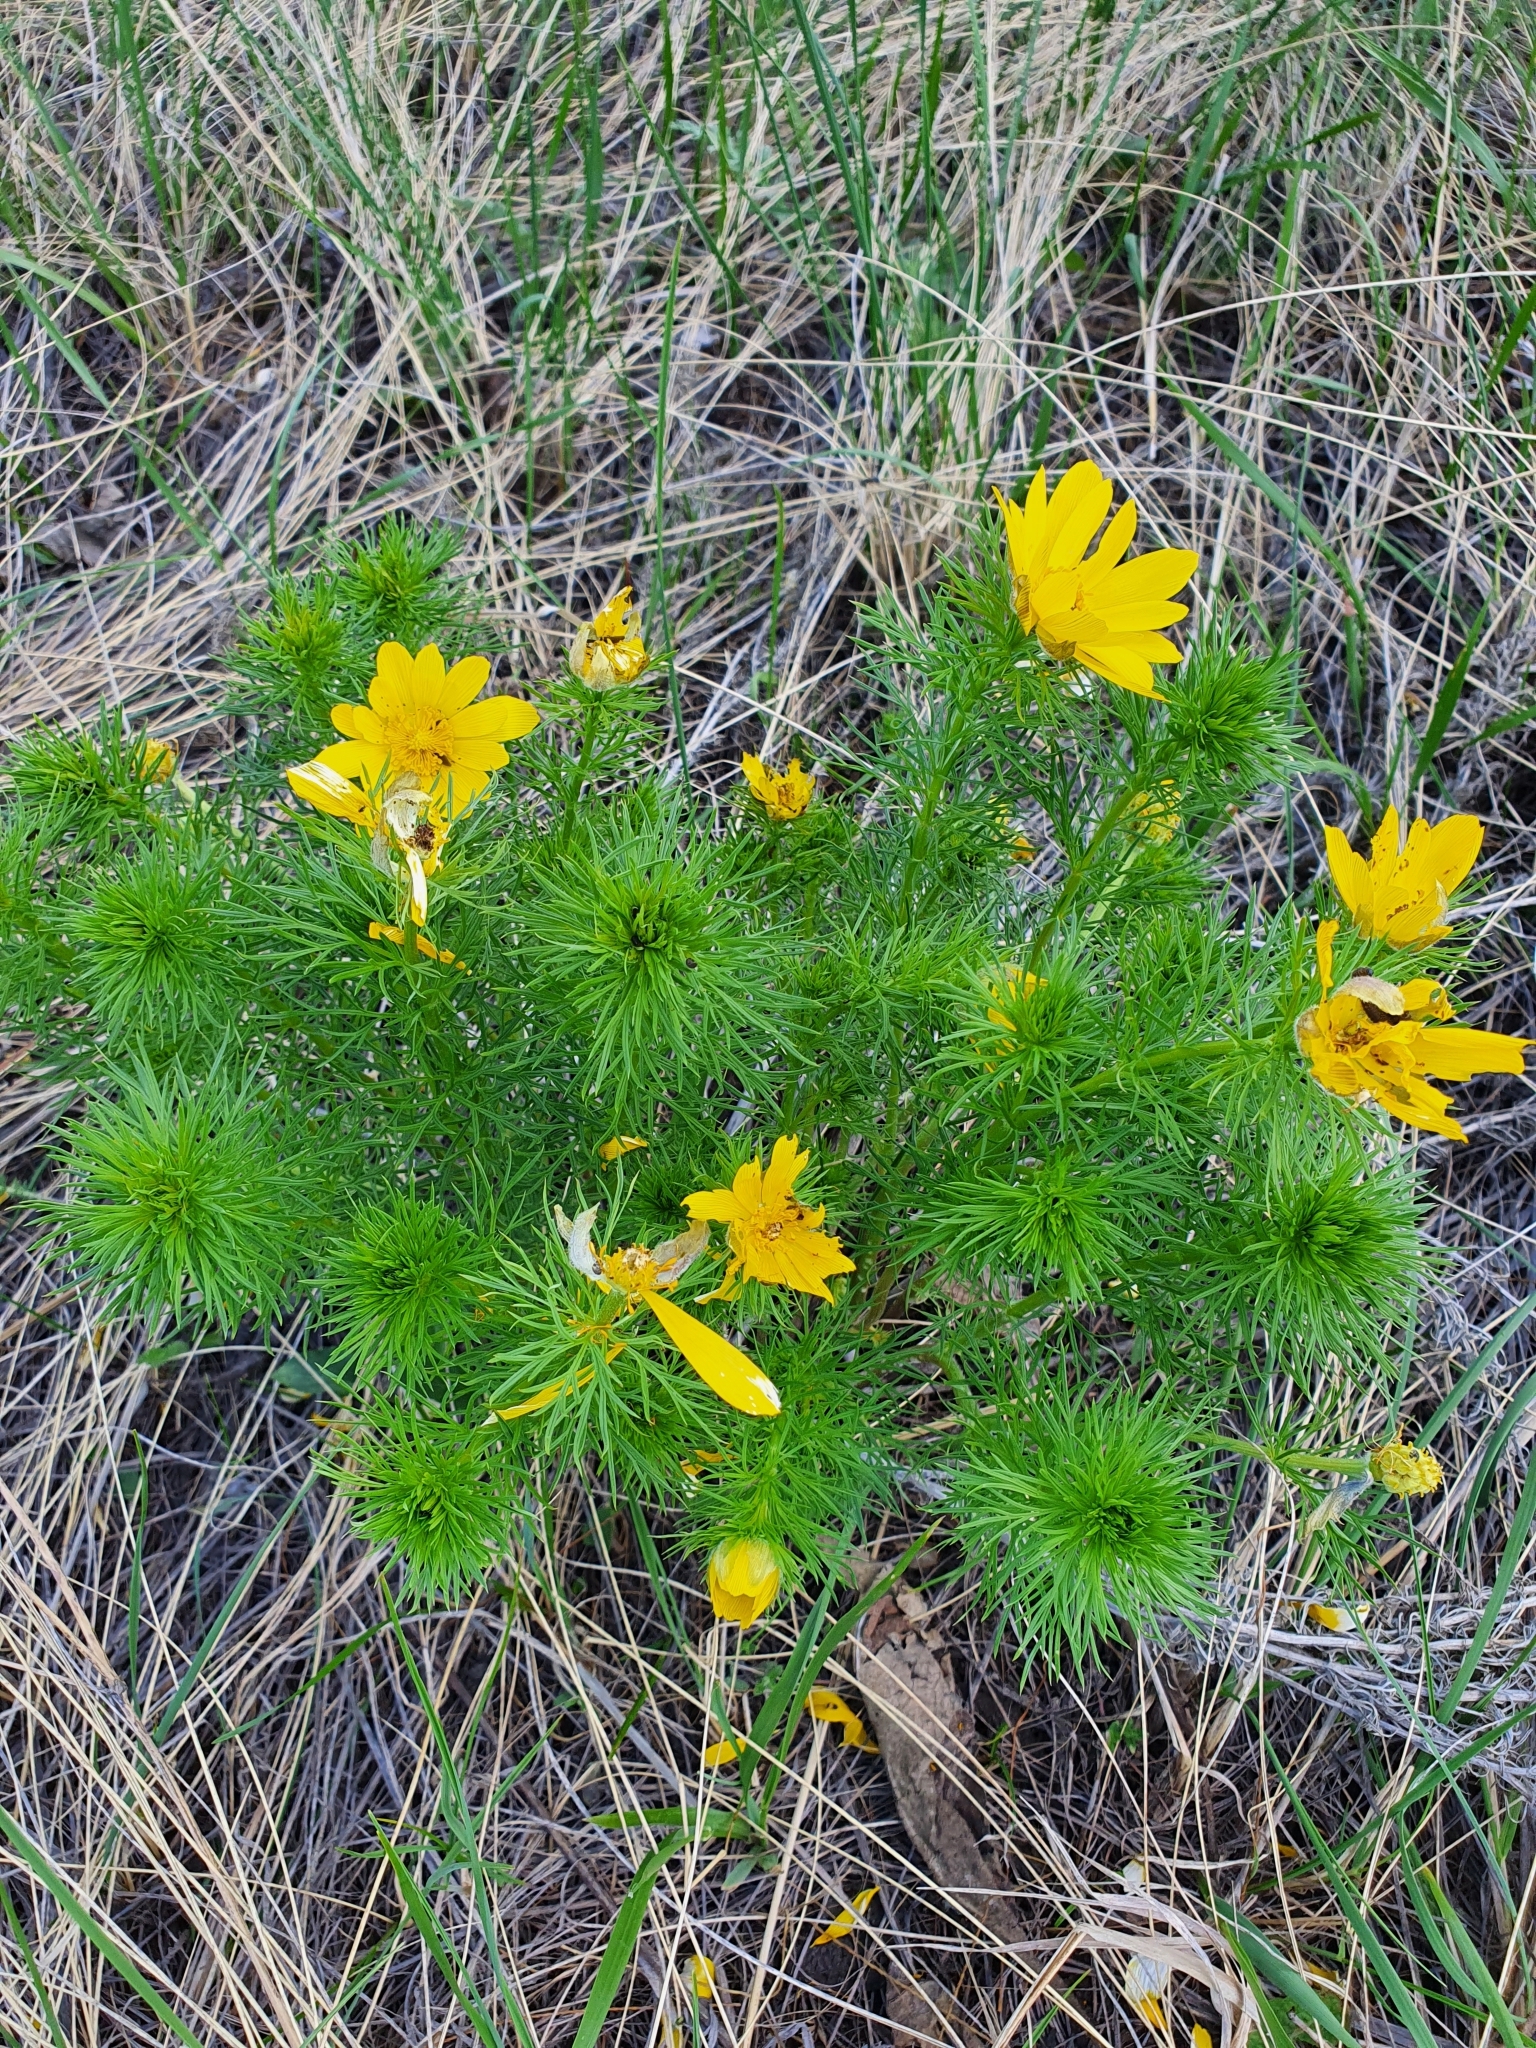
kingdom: Plantae
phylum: Tracheophyta
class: Magnoliopsida
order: Ranunculales
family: Ranunculaceae
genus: Adonis
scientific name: Adonis vernalis
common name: Yellow pheasants-eye
